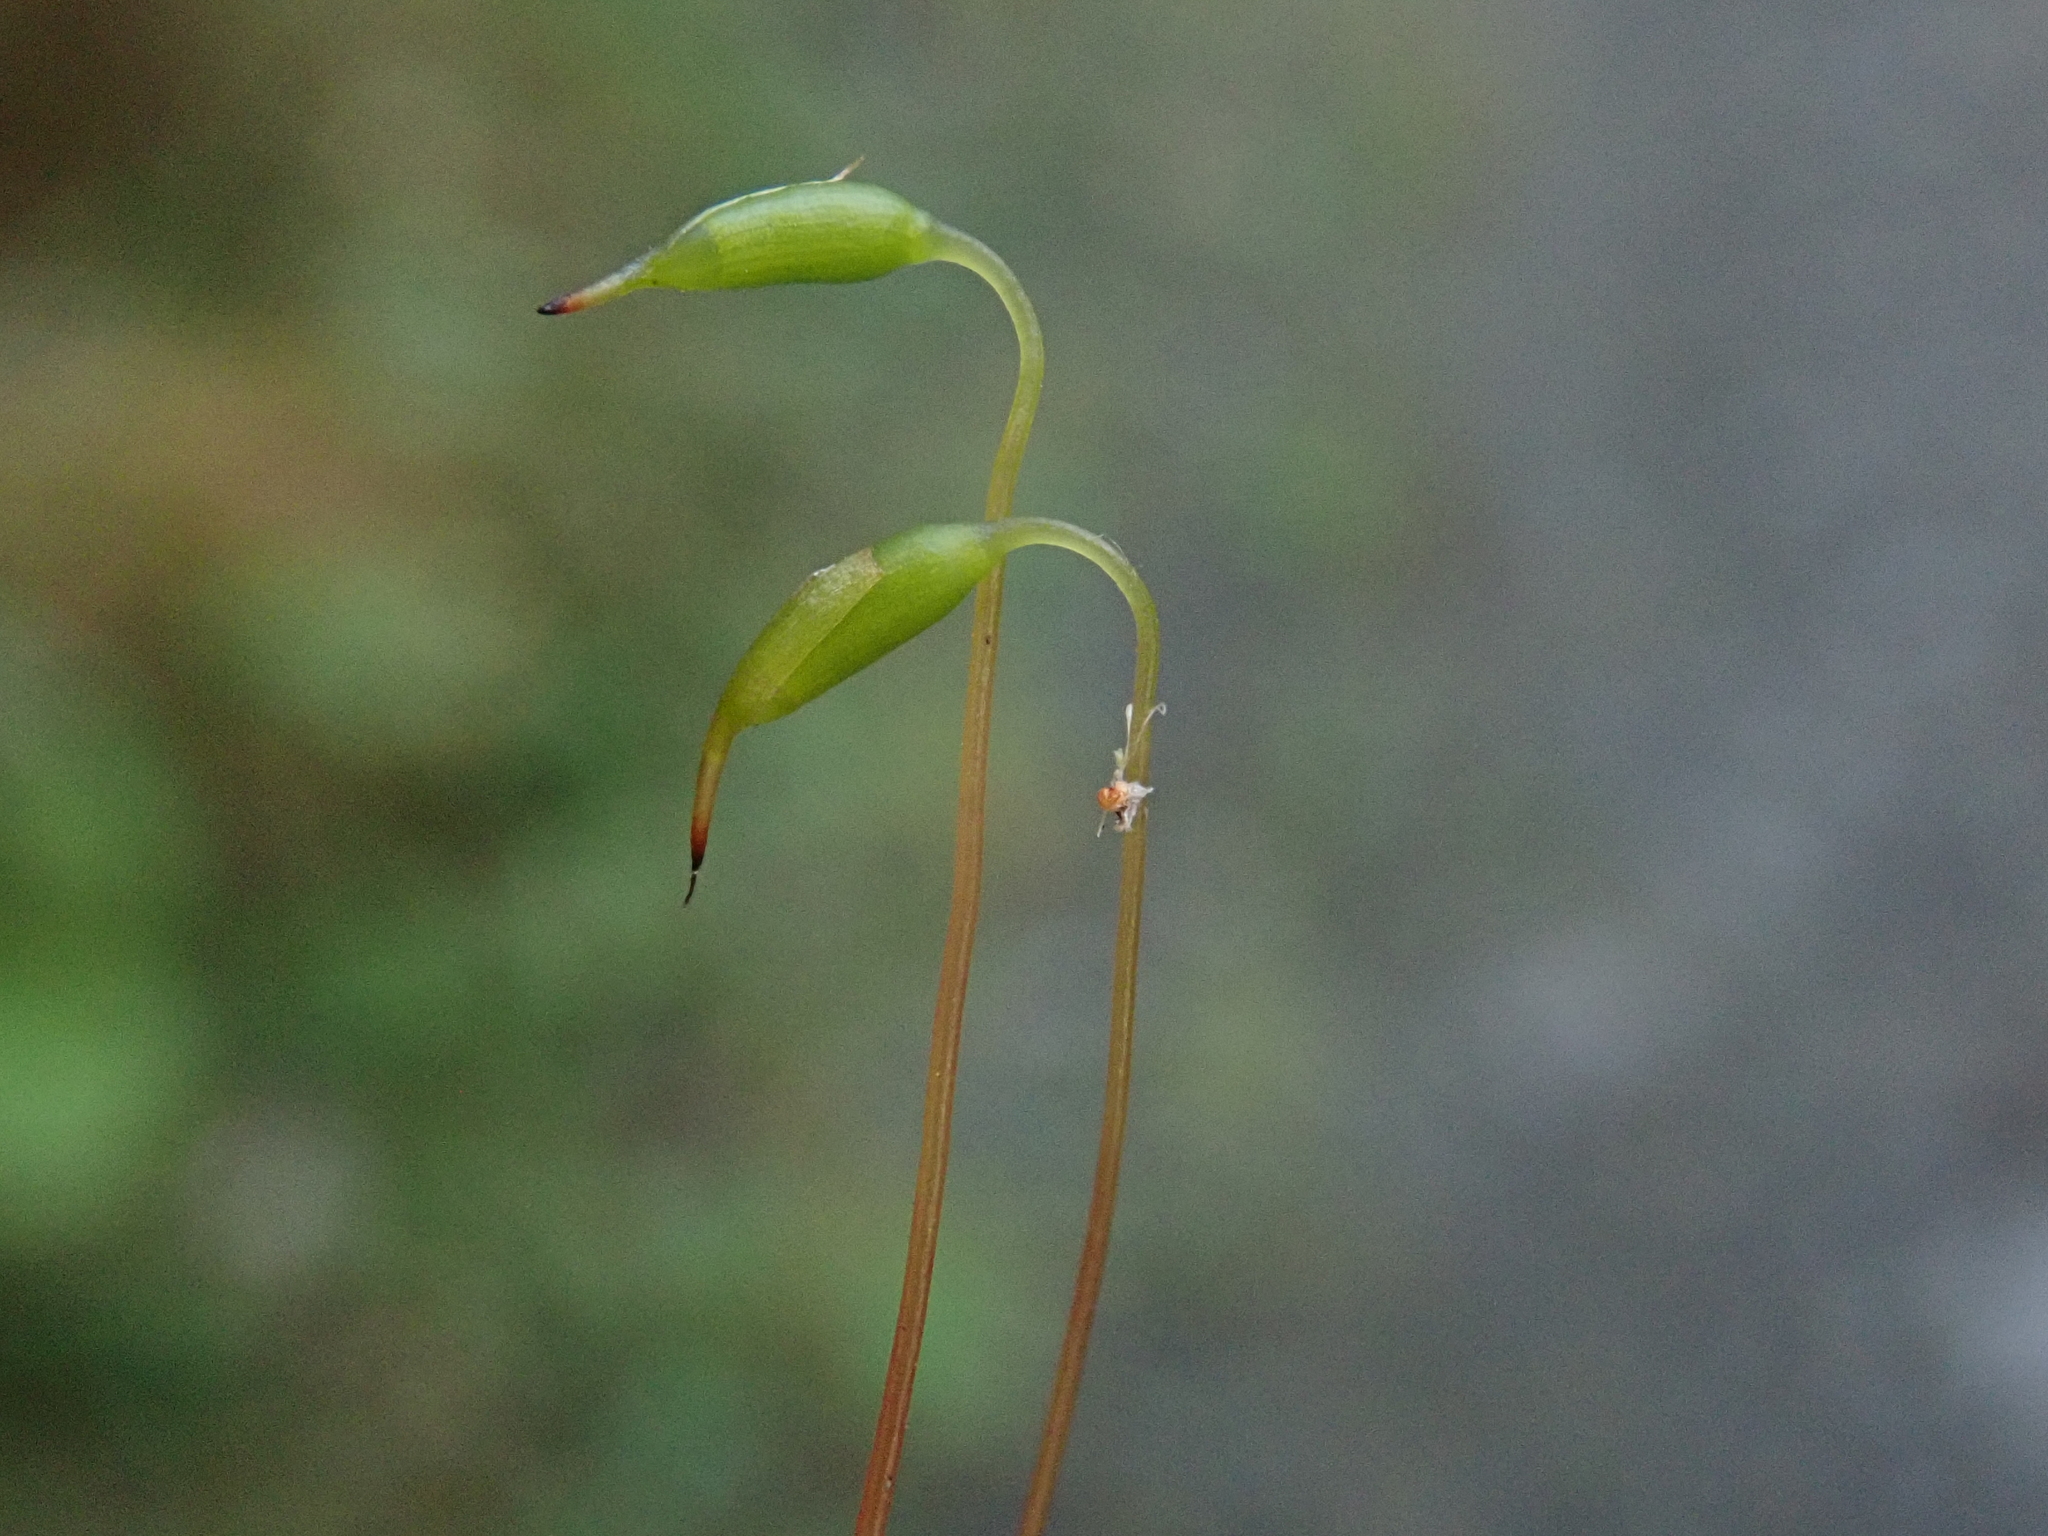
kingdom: Plantae
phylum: Bryophyta
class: Bryopsida
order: Bryales
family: Mniaceae
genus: Rhizomnium
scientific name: Rhizomnium punctatum
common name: Dotted leafy moss
